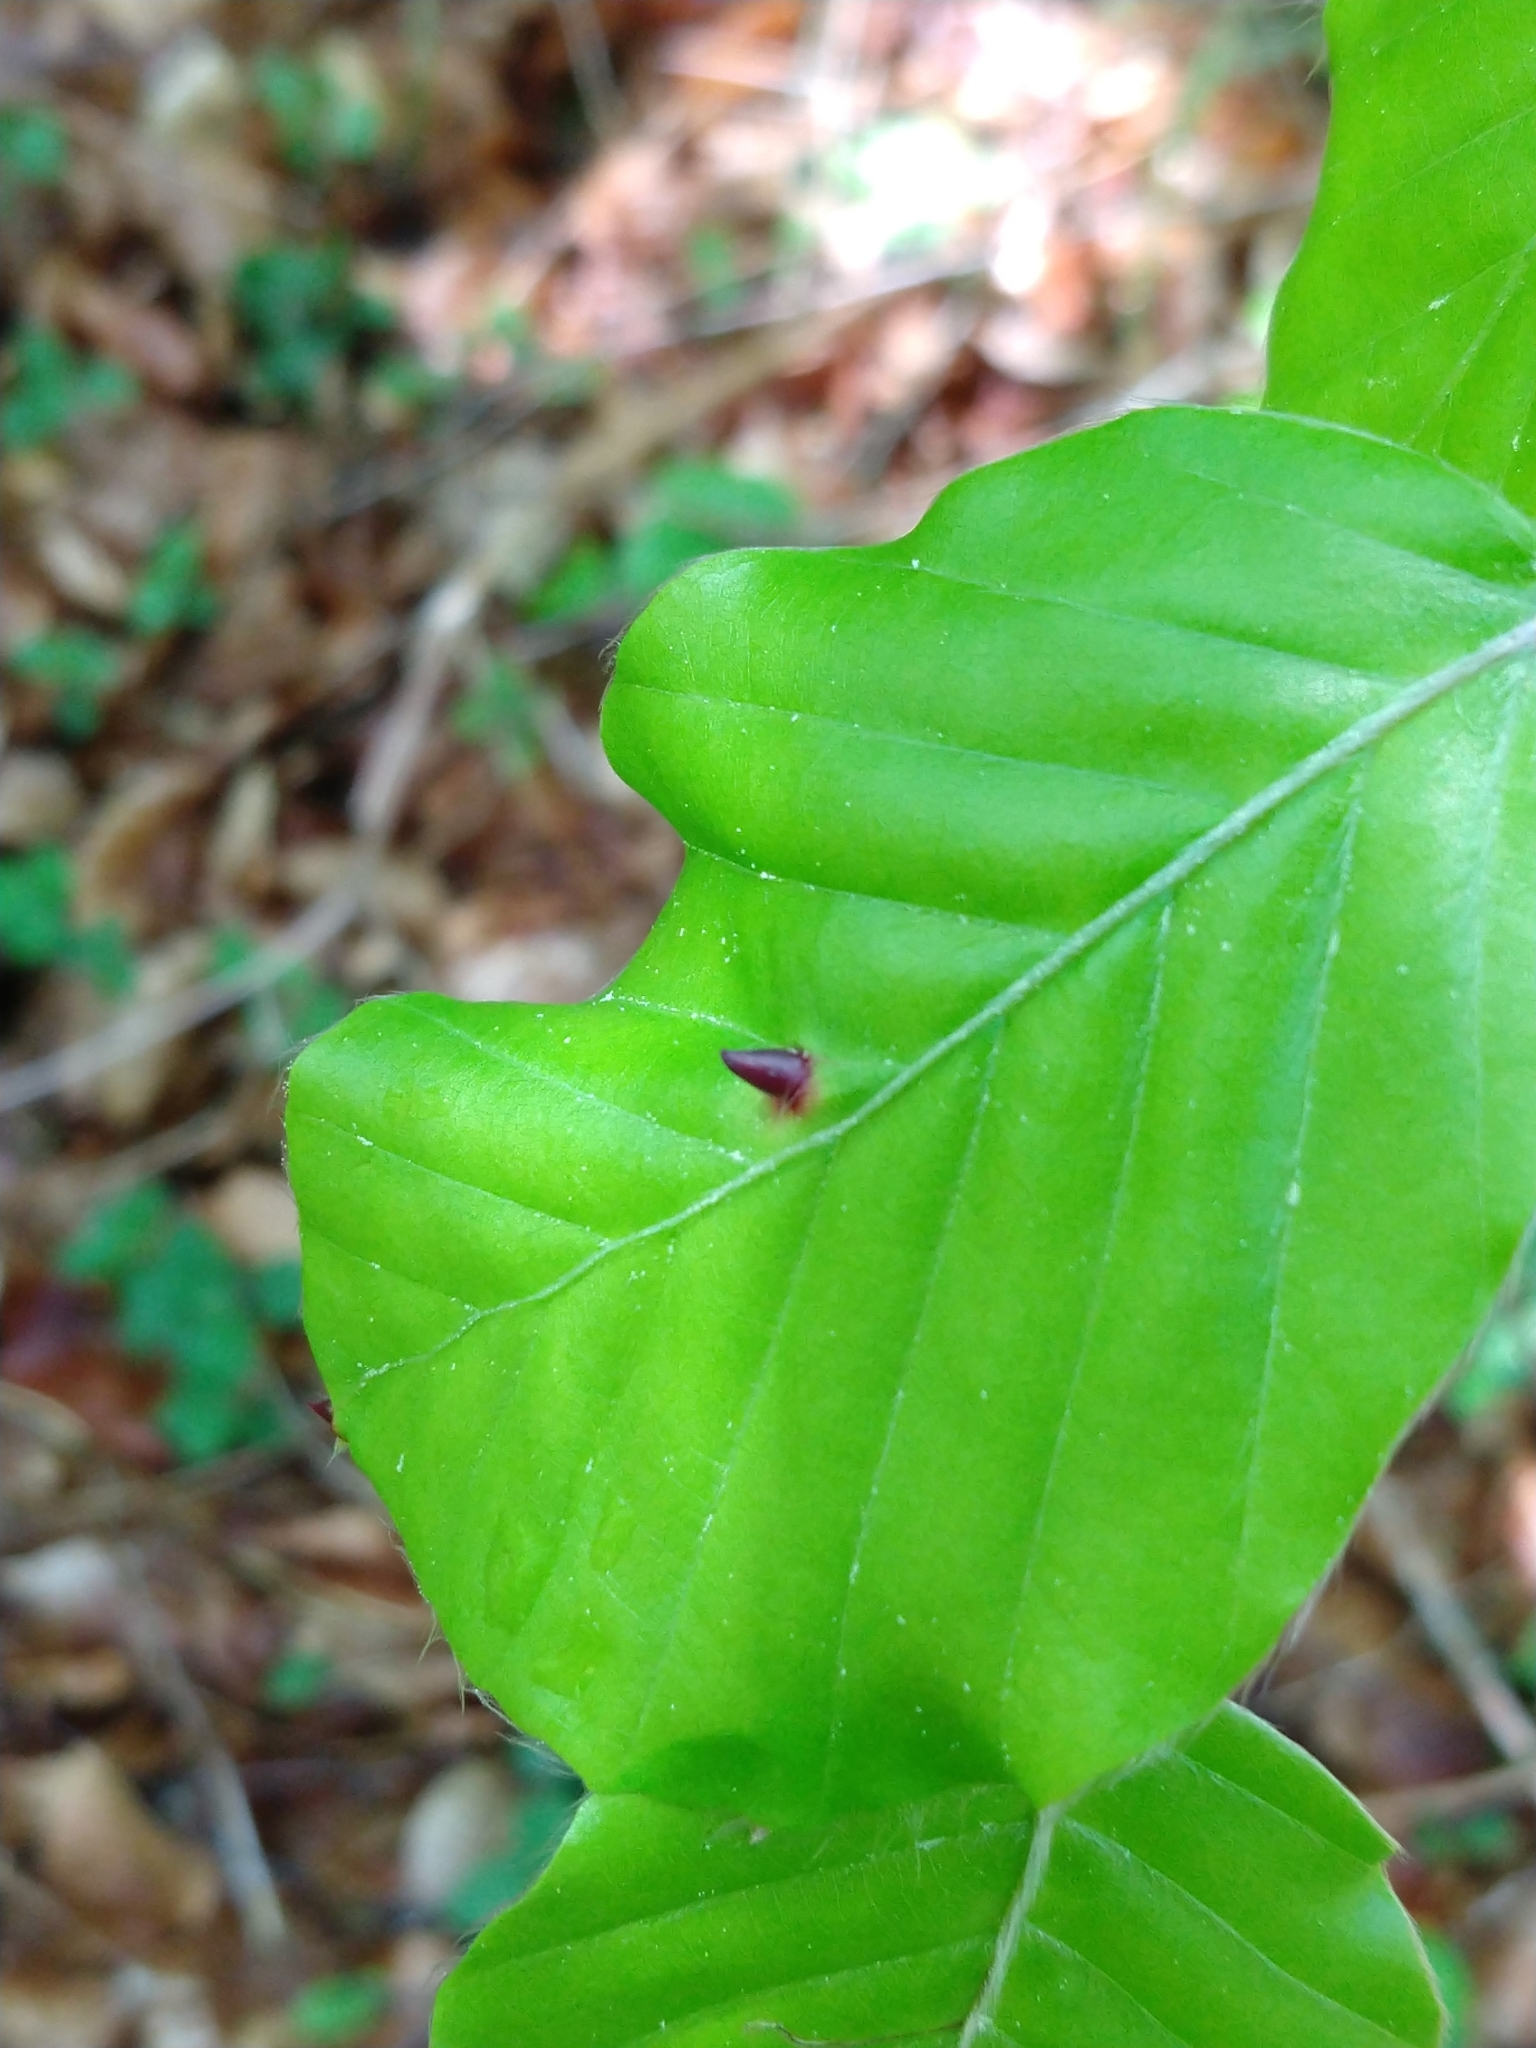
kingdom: Animalia
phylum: Arthropoda
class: Insecta
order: Diptera
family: Cecidomyiidae
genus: Mikiola
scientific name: Mikiola fagi
